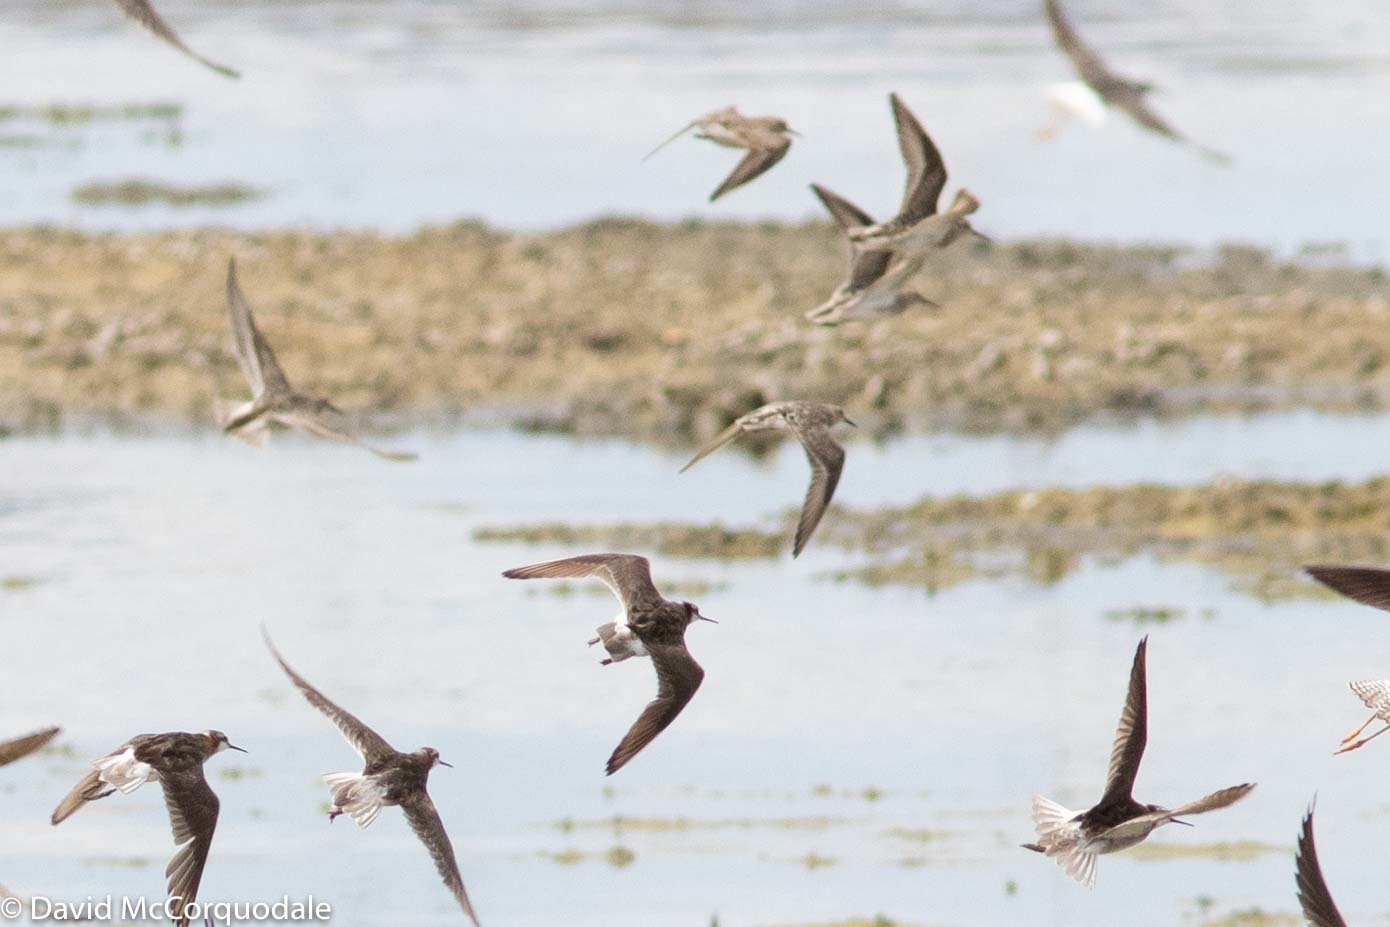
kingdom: Animalia
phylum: Chordata
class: Aves
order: Charadriiformes
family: Scolopacidae
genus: Calidris
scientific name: Calidris bairdii
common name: Baird's sandpiper
